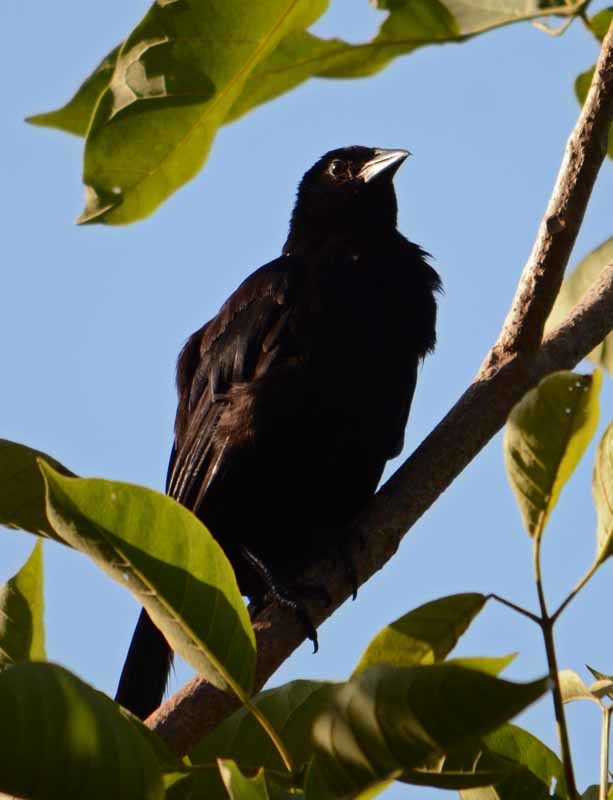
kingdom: Animalia
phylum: Chordata
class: Aves
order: Passeriformes
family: Icteridae
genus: Dives
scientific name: Dives dives
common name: Melodious blackbird
